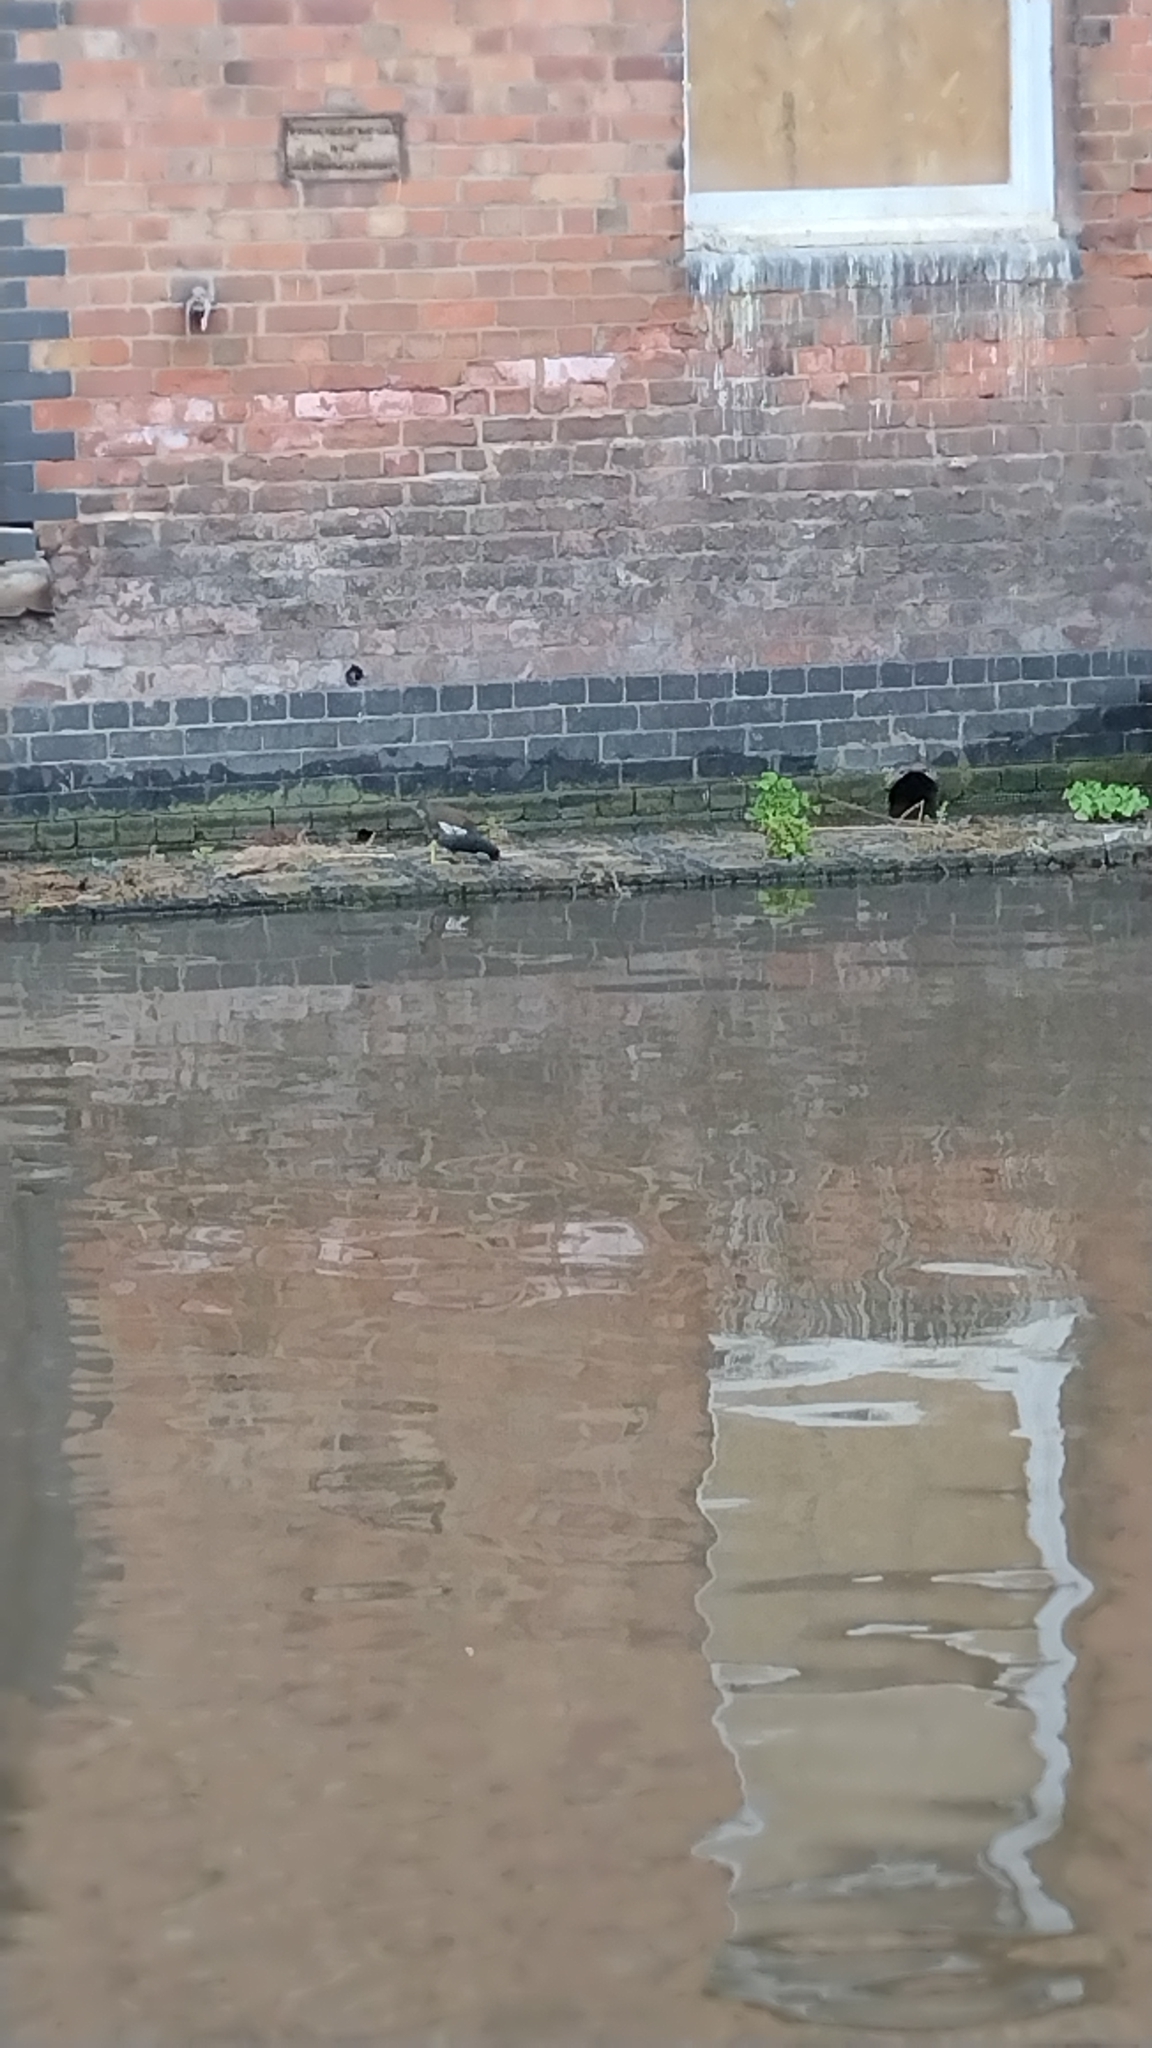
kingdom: Animalia
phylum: Chordata
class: Aves
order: Gruiformes
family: Rallidae
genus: Gallinula
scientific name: Gallinula chloropus
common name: Common moorhen
